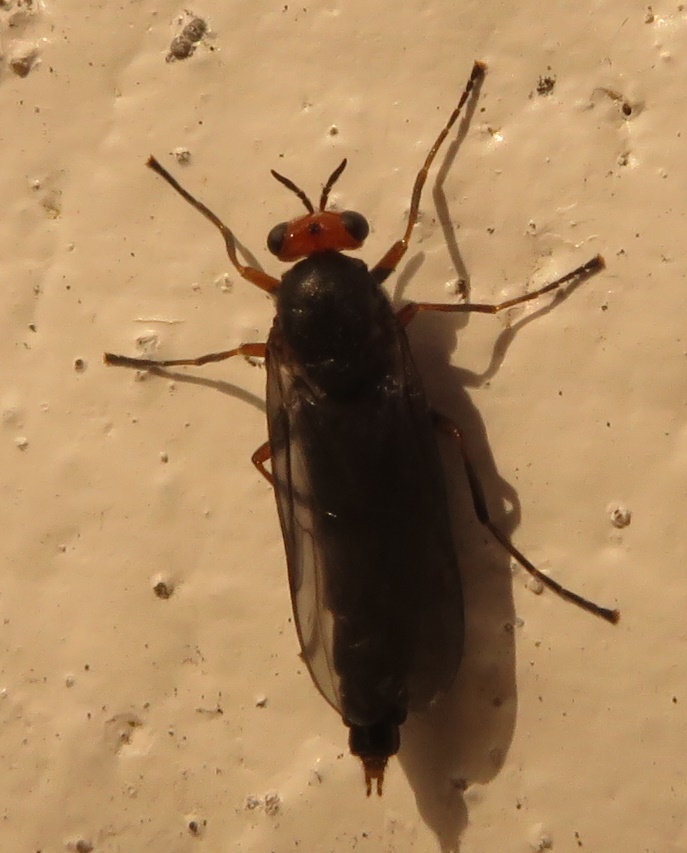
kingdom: Animalia
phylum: Arthropoda
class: Insecta
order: Diptera
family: Stratiomyidae
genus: Inopus
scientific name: Inopus rubriceps
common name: Soldier fly
